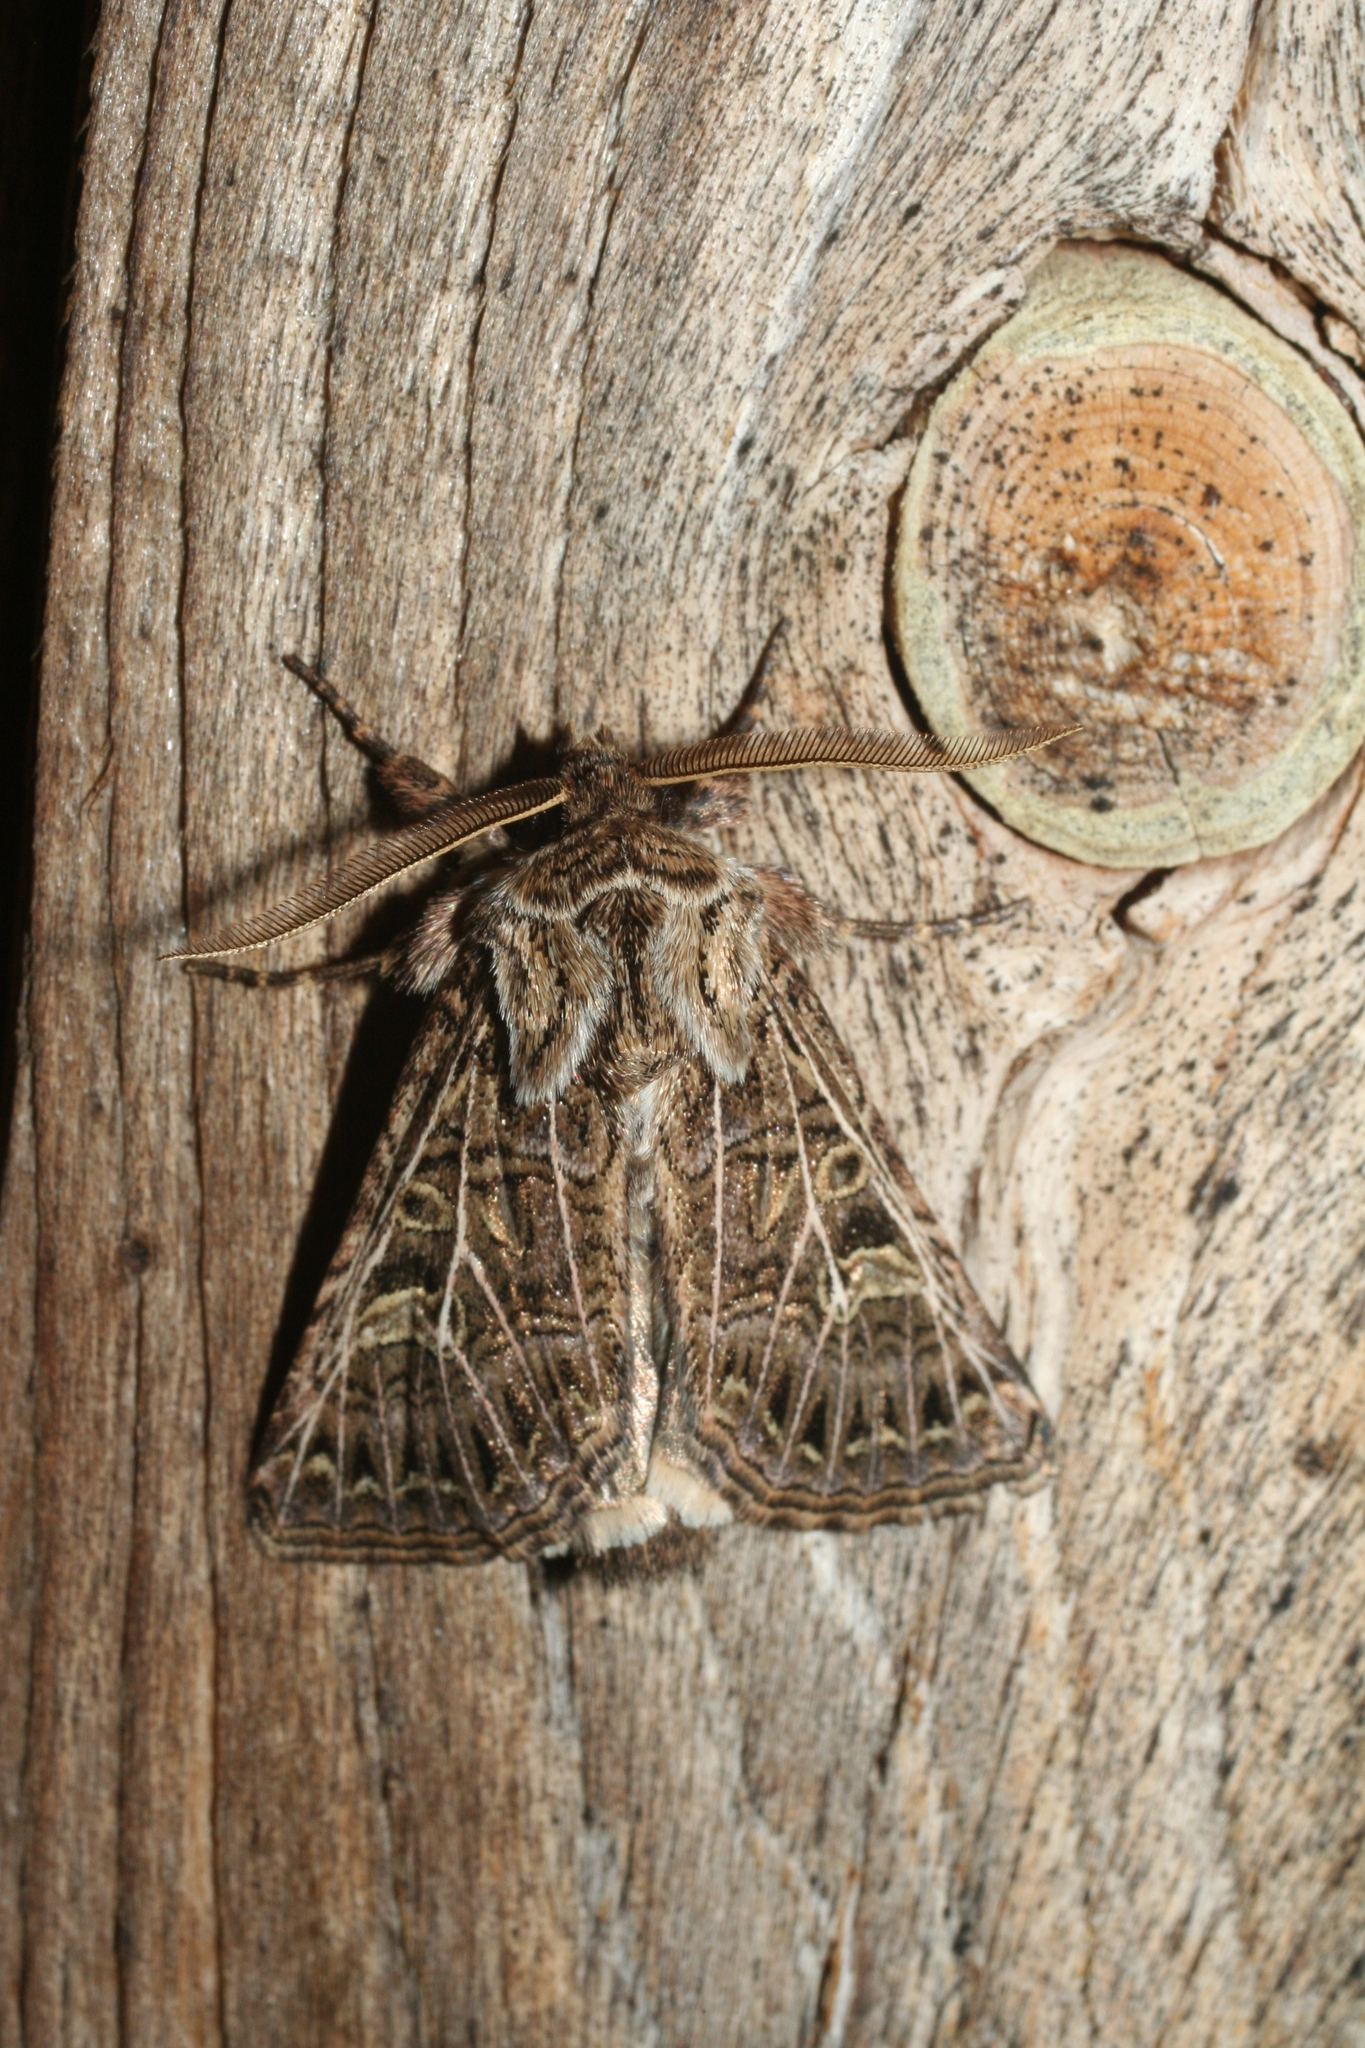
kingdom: Animalia
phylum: Arthropoda
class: Insecta
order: Lepidoptera
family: Noctuidae
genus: Tholera
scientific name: Tholera decimalis
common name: Feathered gothic
